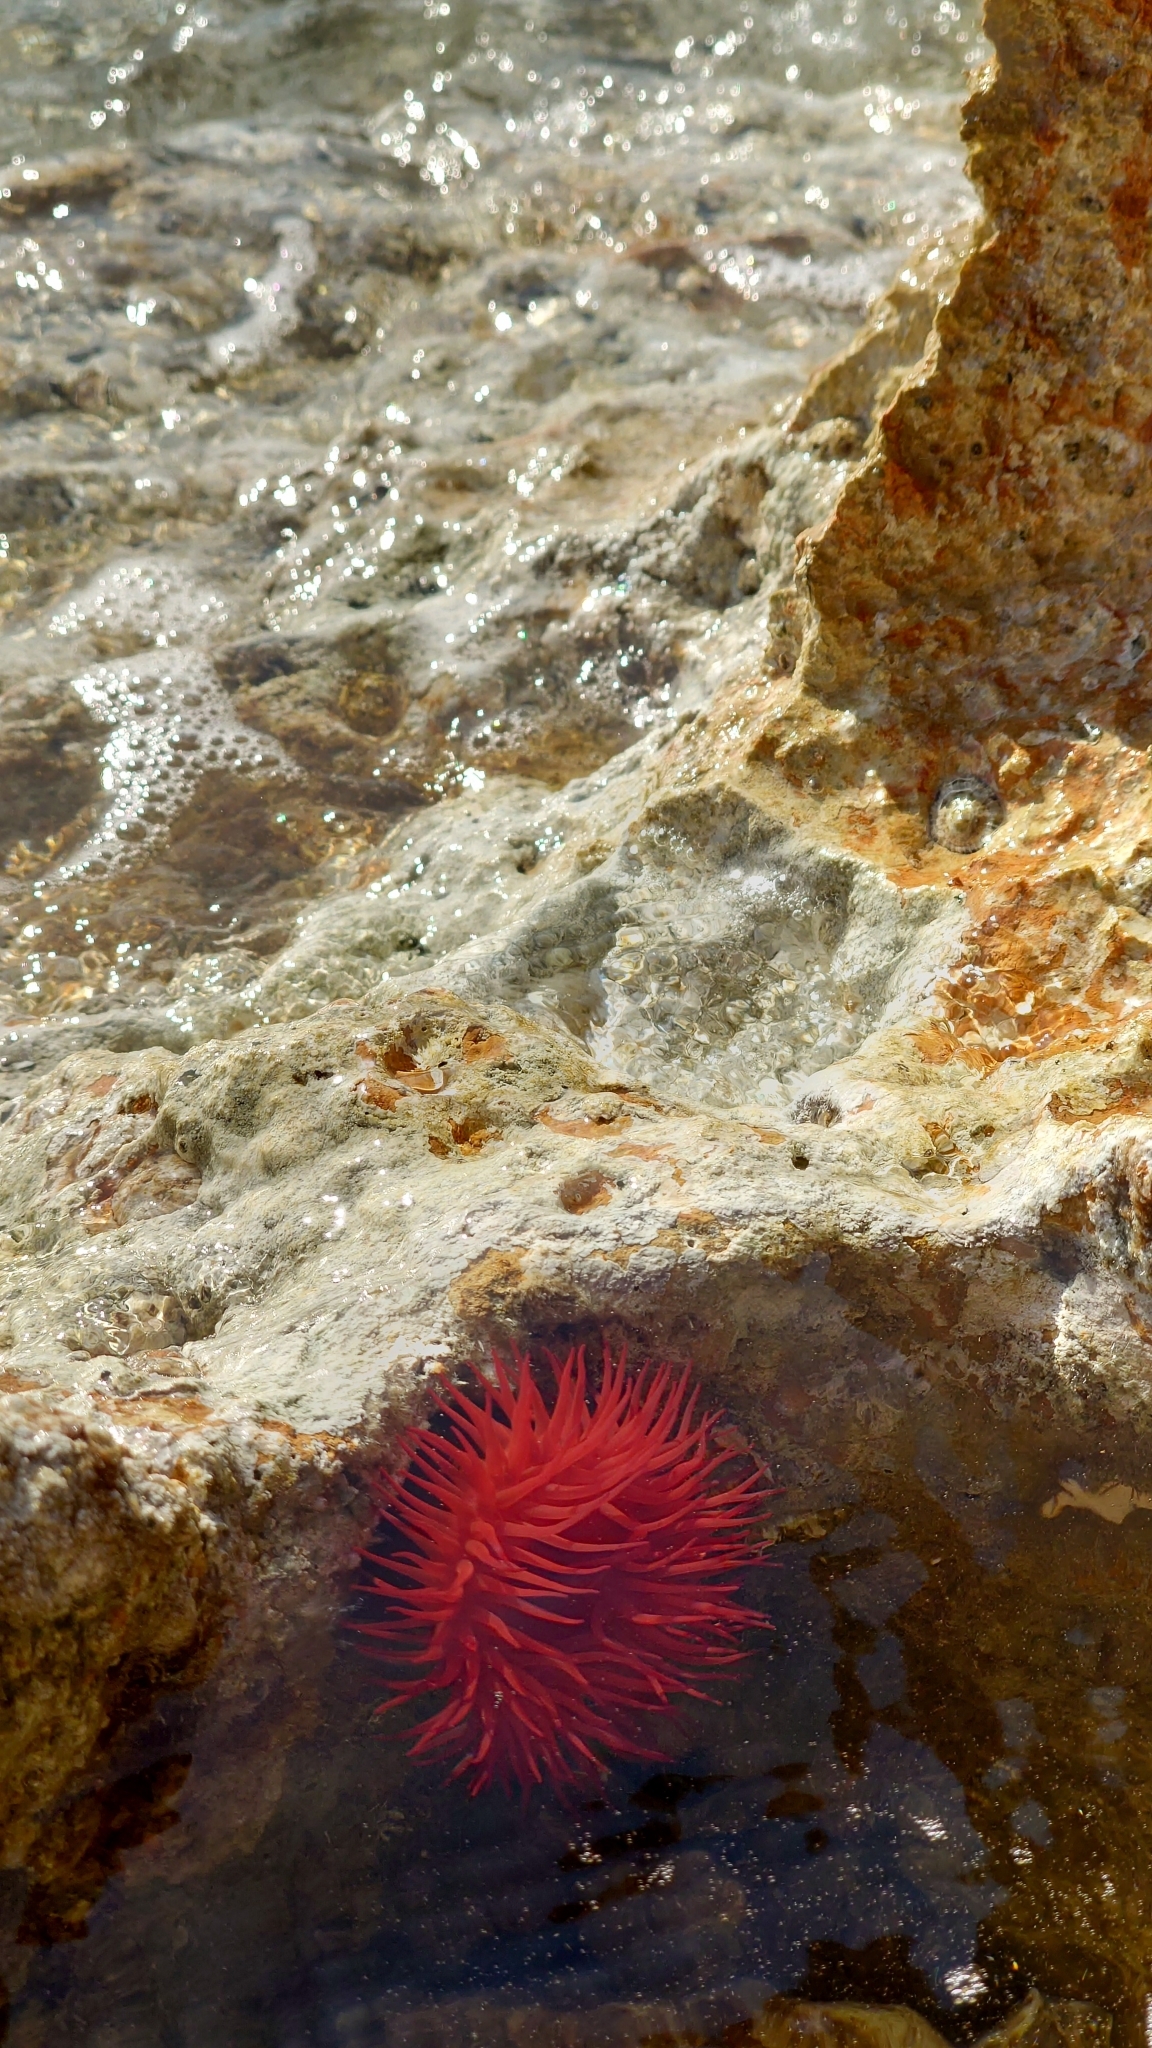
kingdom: Animalia
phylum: Cnidaria
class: Anthozoa
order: Actiniaria
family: Actiniidae
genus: Actinia
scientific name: Actinia mediterranea
